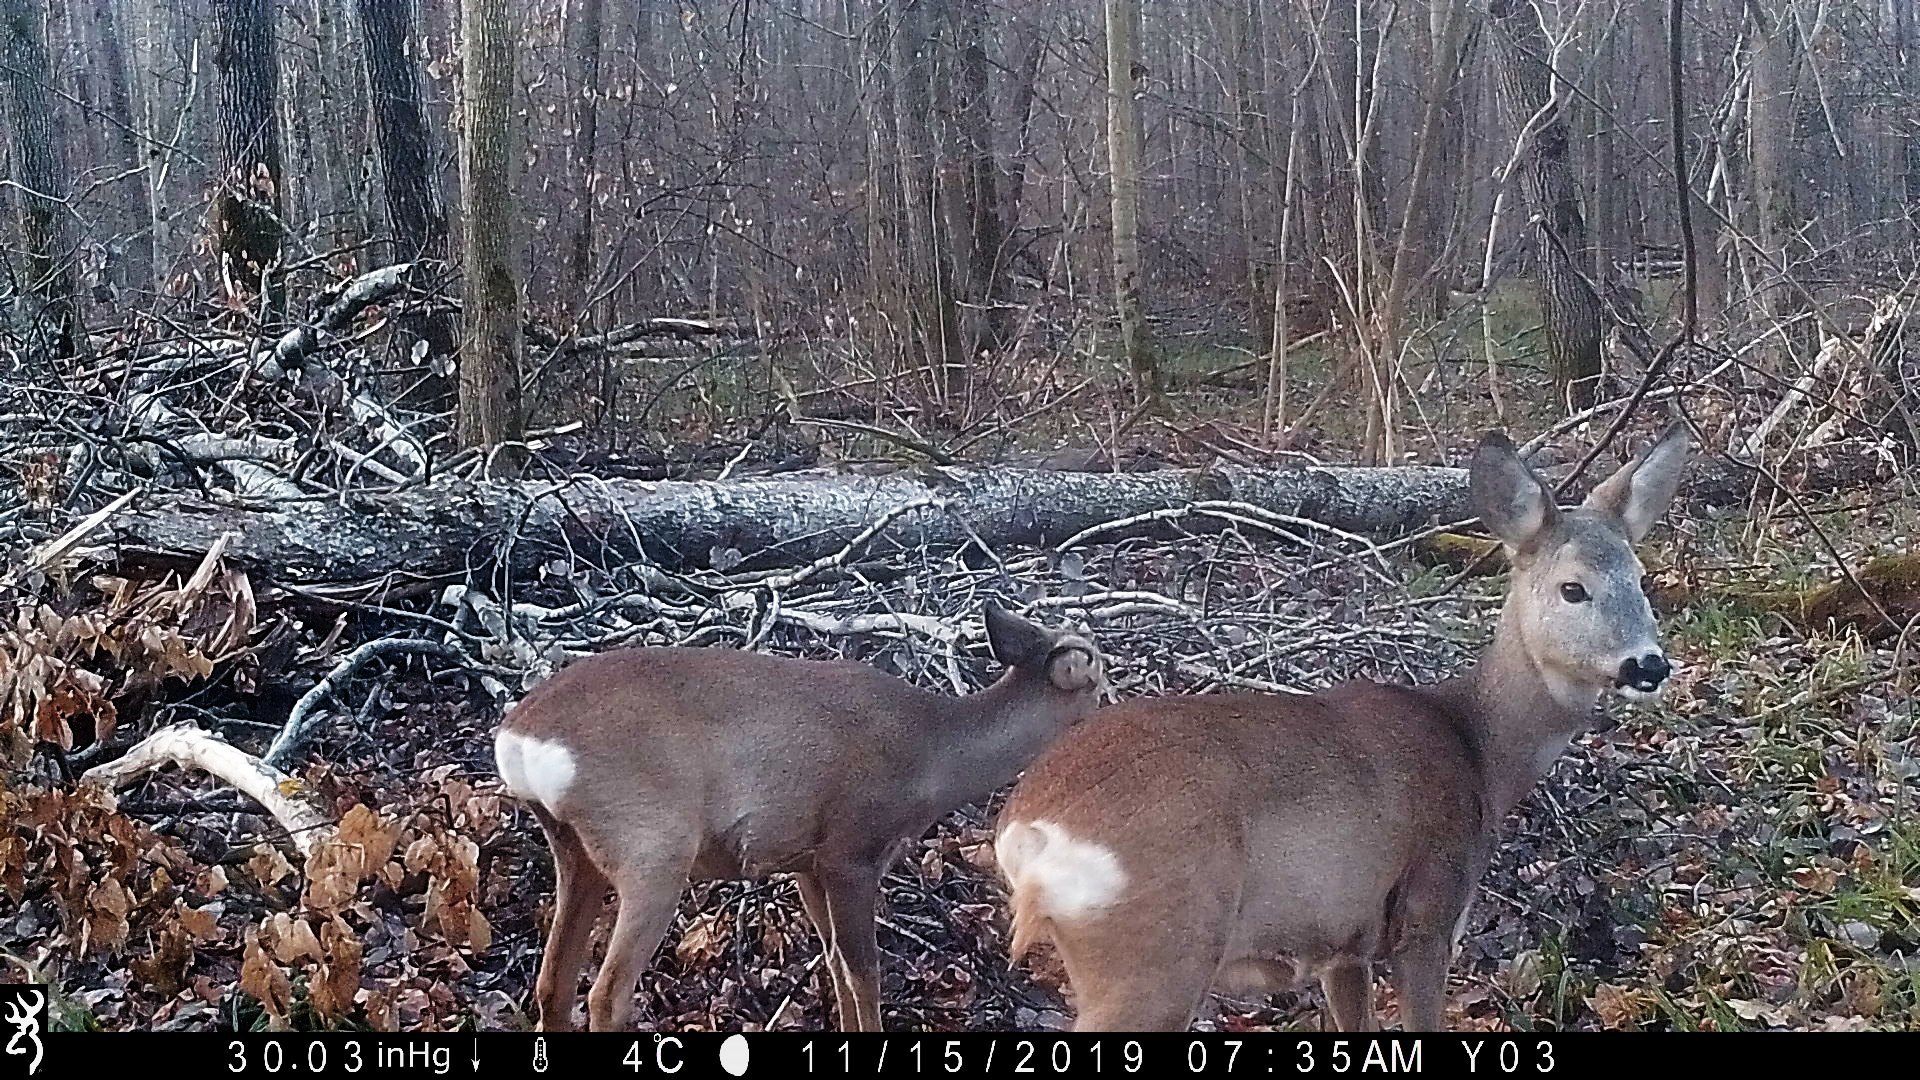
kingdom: Animalia
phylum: Chordata
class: Mammalia
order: Artiodactyla
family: Cervidae
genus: Capreolus
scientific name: Capreolus capreolus
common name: Western roe deer
